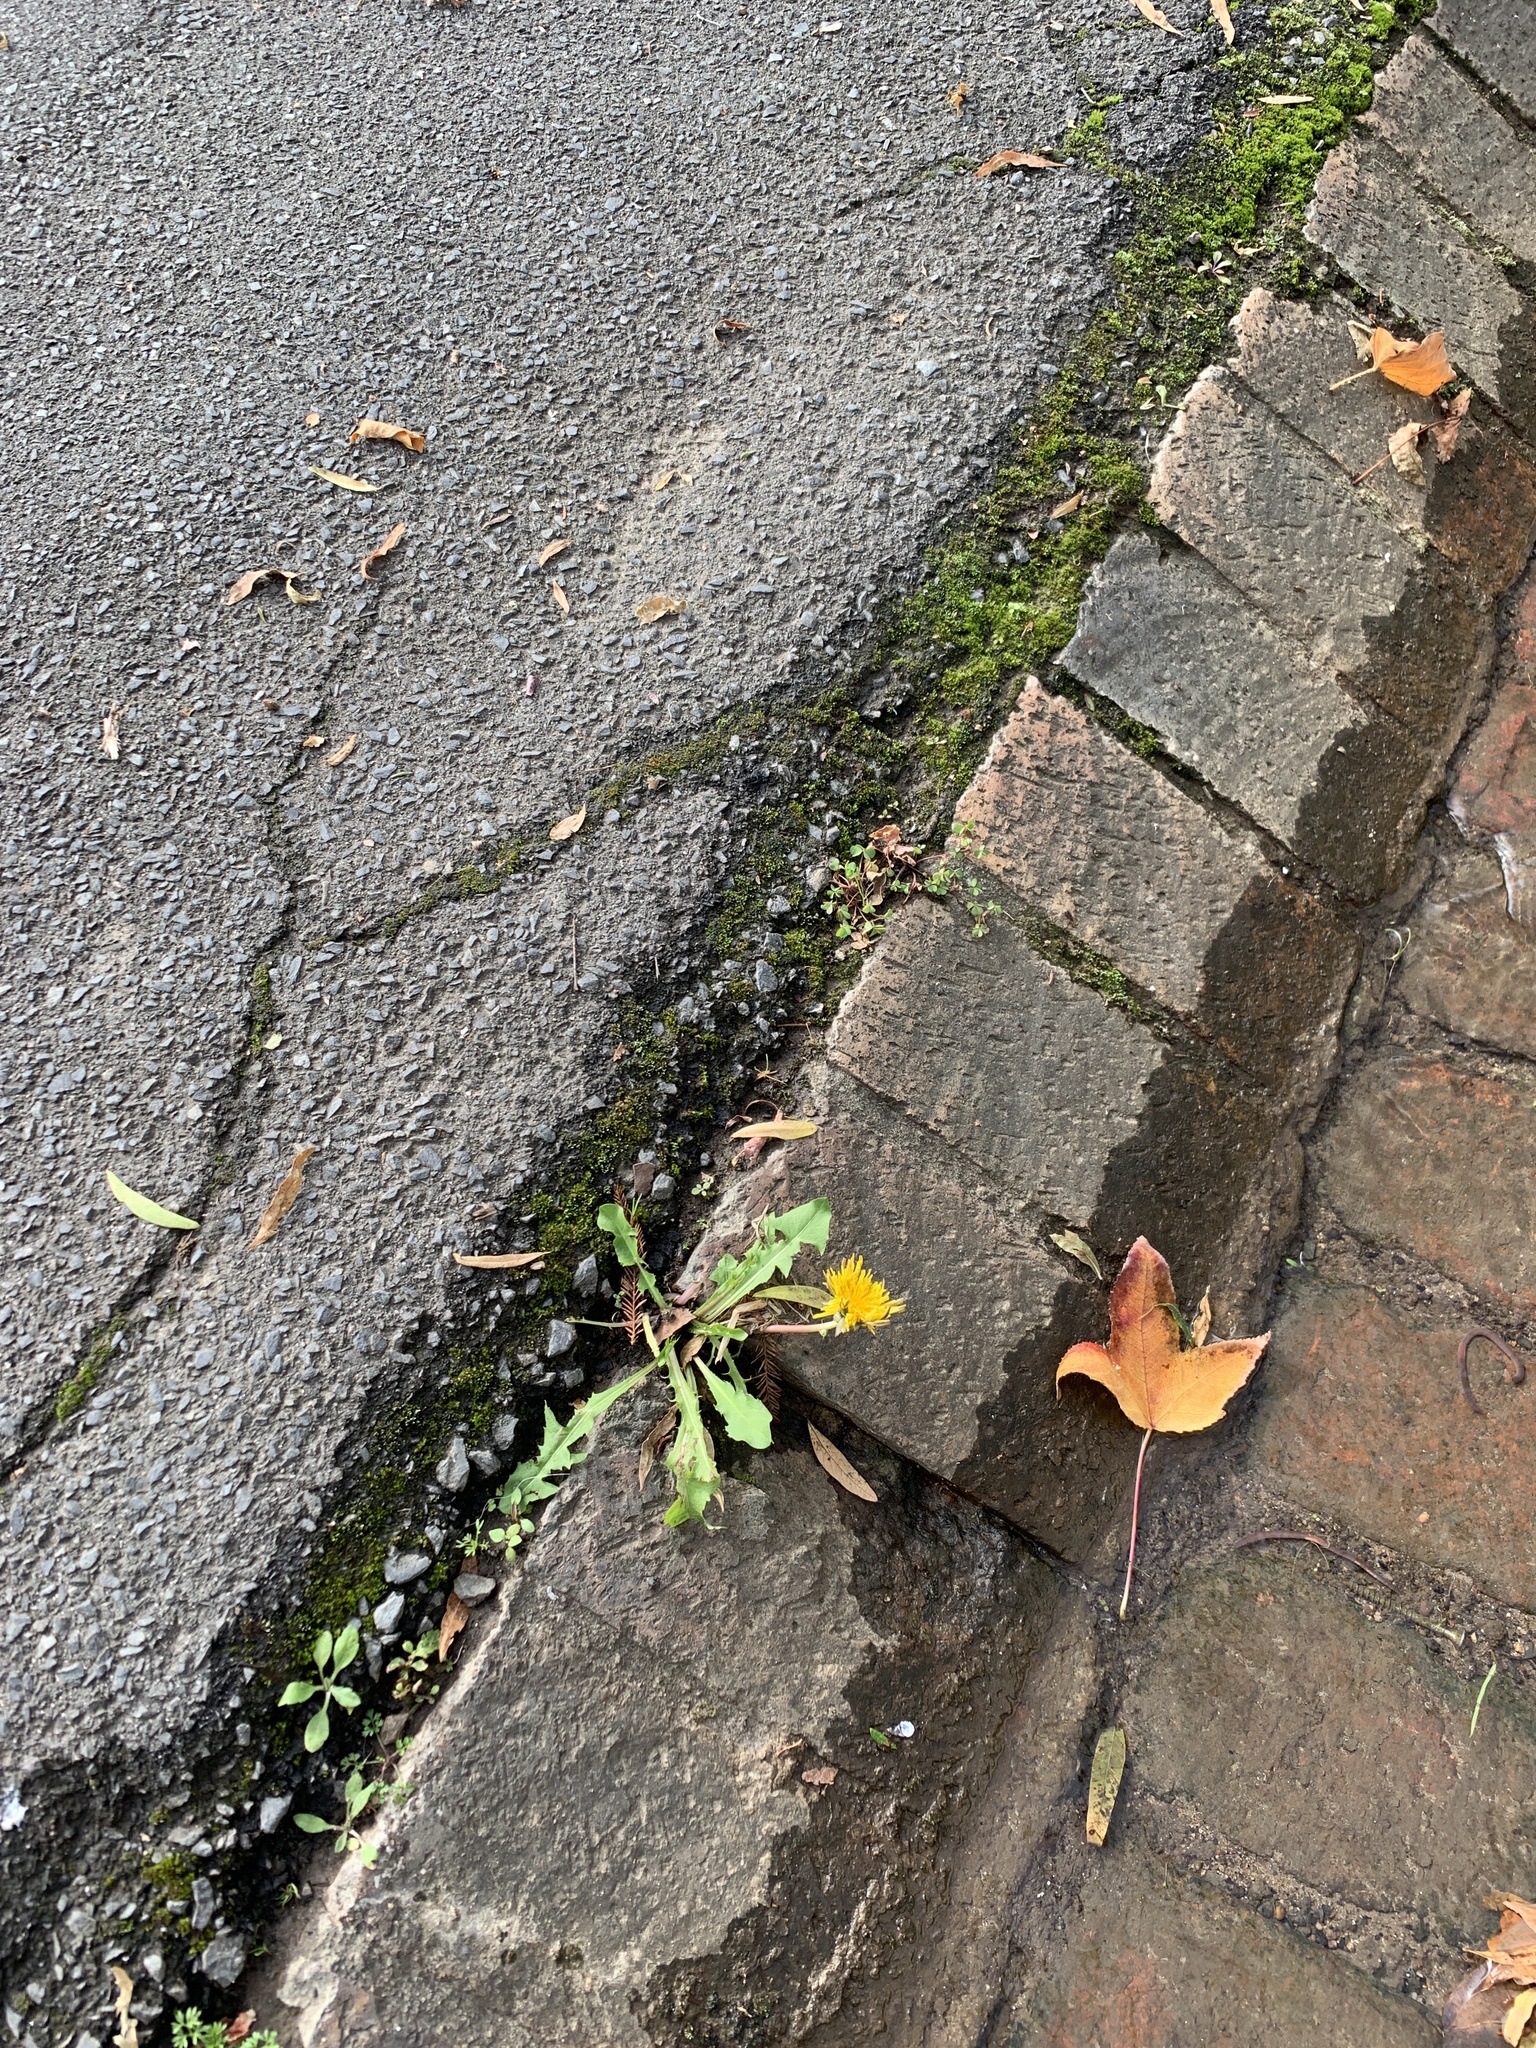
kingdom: Plantae
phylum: Tracheophyta
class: Magnoliopsida
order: Asterales
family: Asteraceae
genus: Taraxacum
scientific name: Taraxacum officinale
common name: Common dandelion
